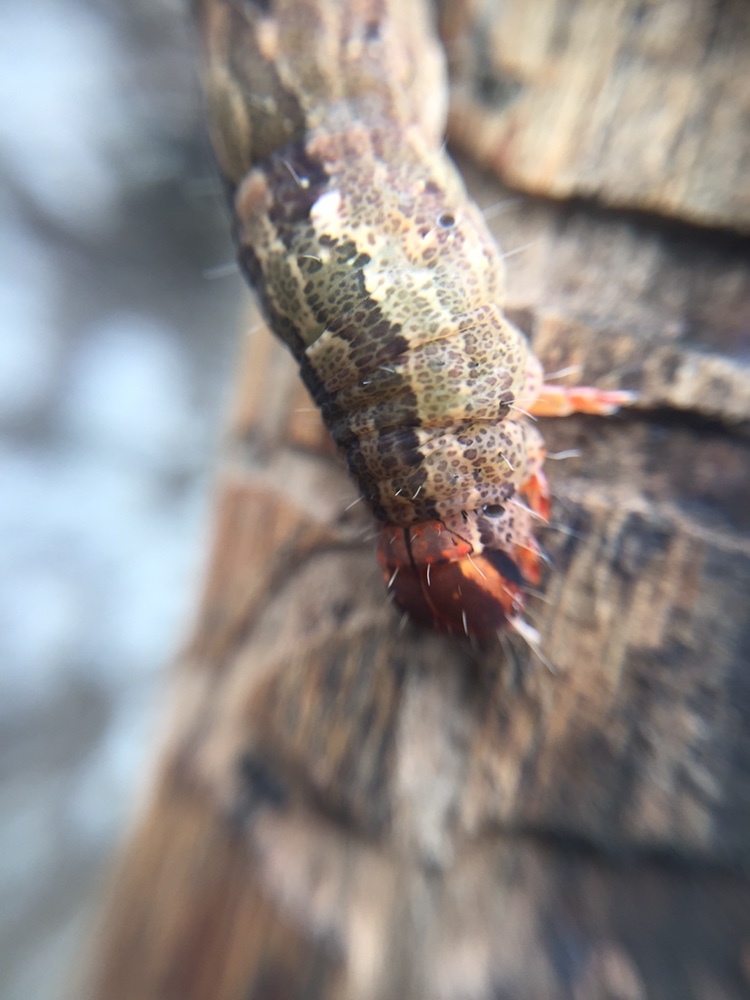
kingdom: Animalia
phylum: Arthropoda
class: Insecta
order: Lepidoptera
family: Erebidae
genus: Dasypodia
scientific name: Dasypodia cymatodes
